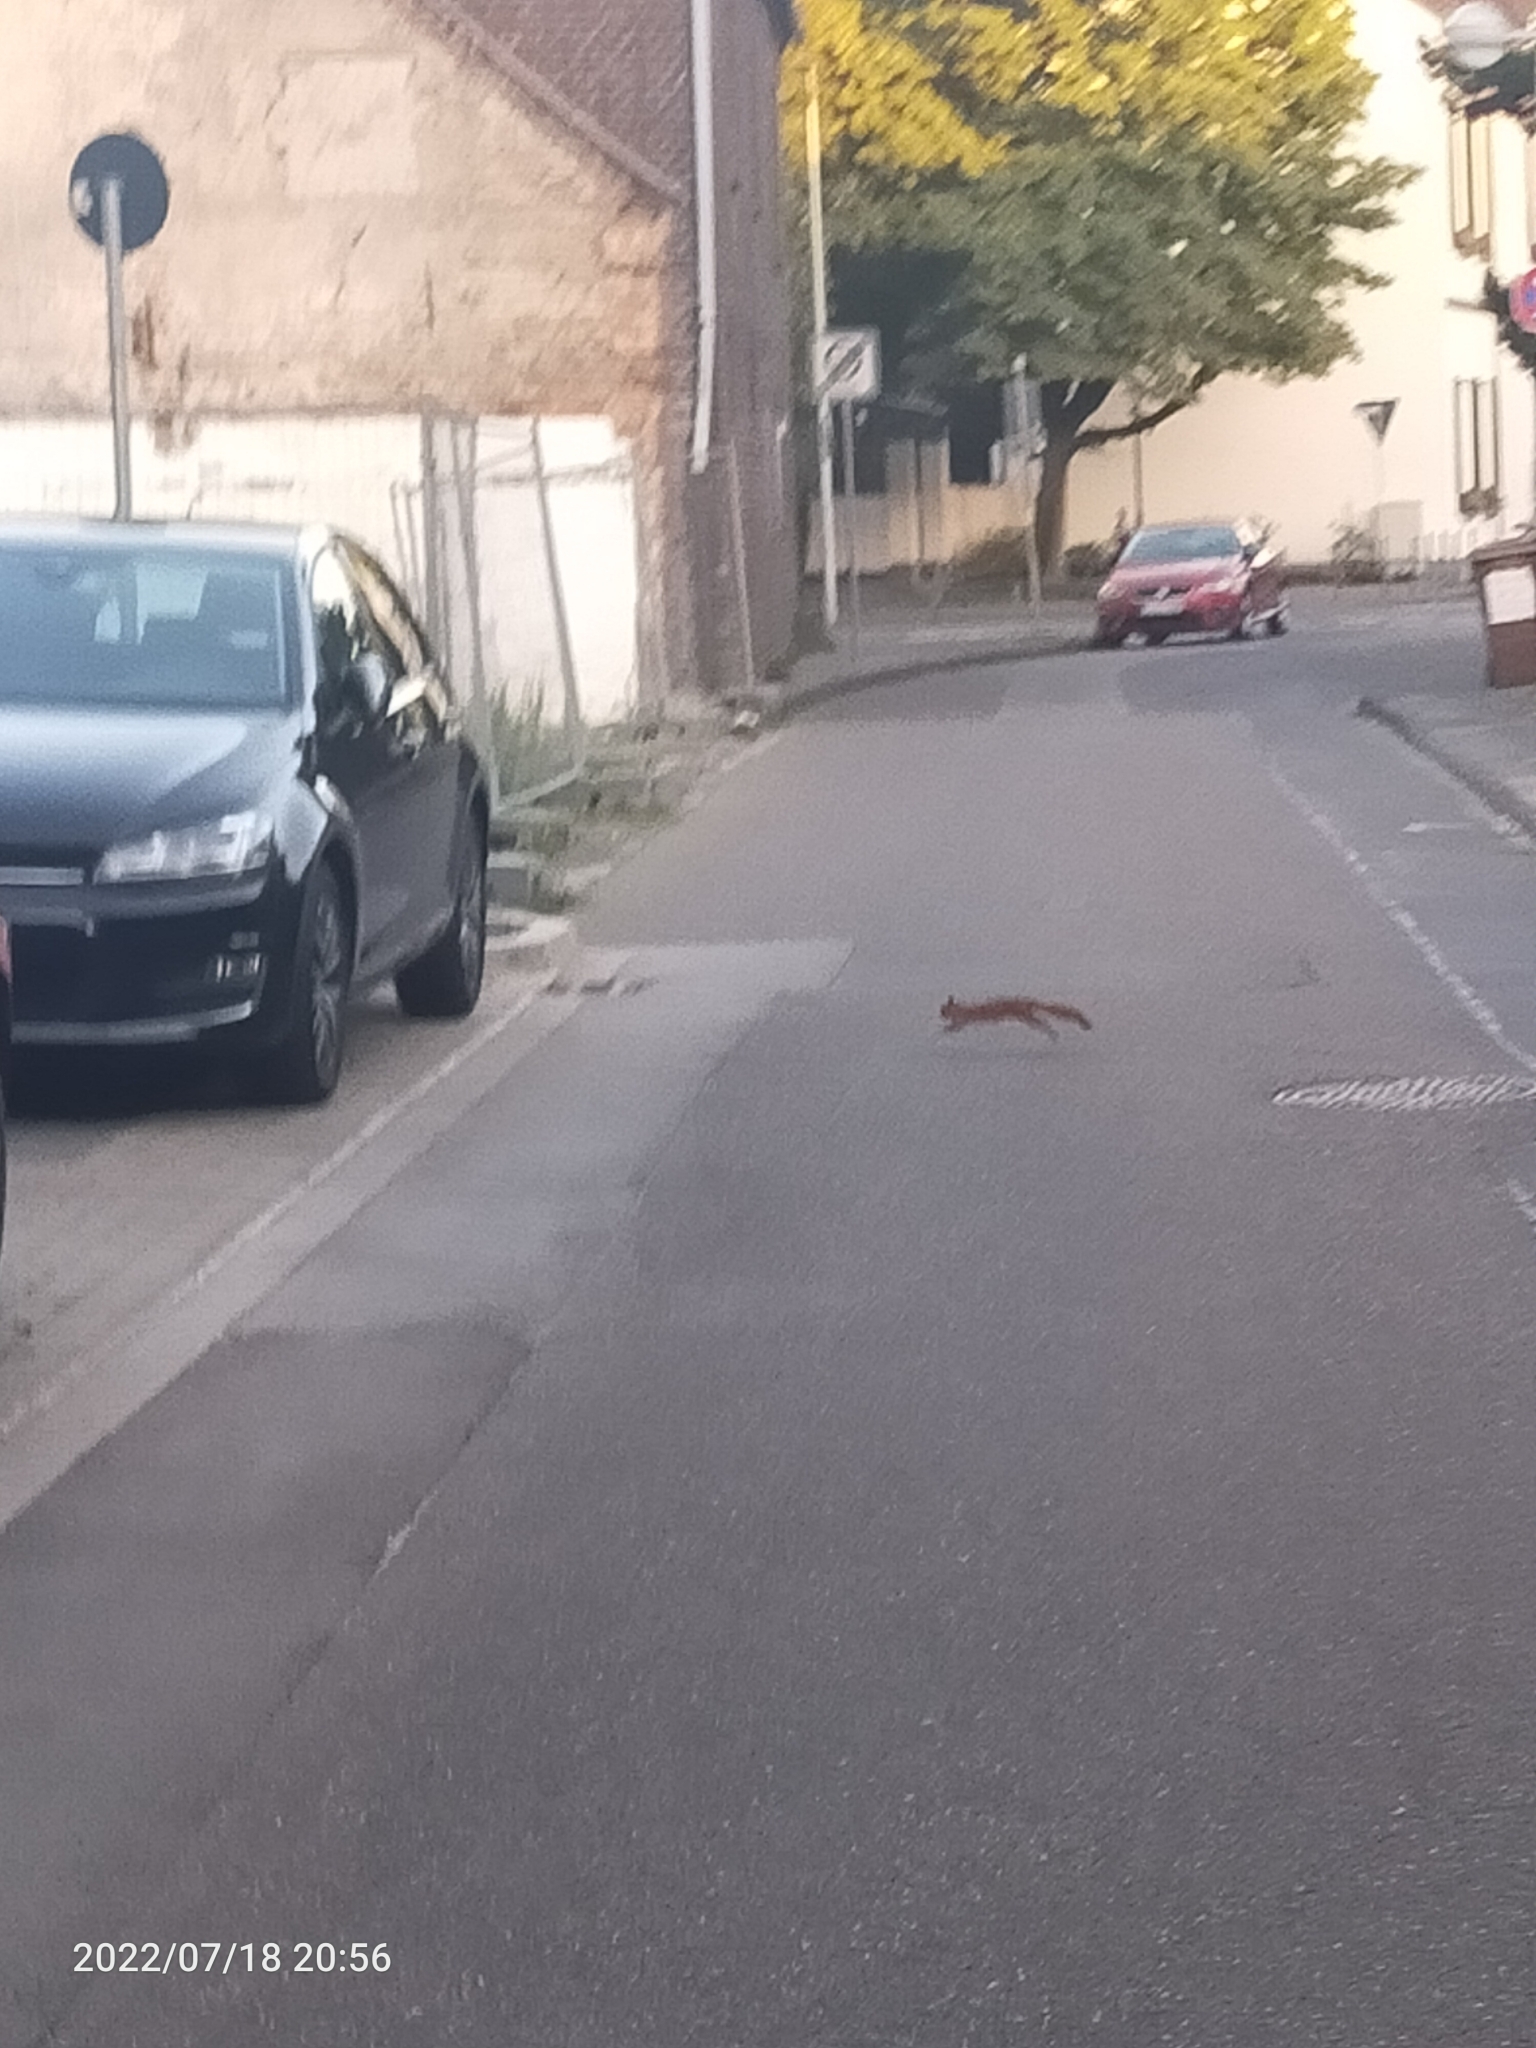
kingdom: Animalia
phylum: Chordata
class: Mammalia
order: Rodentia
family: Sciuridae
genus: Sciurus
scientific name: Sciurus vulgaris
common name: Eurasian red squirrel
